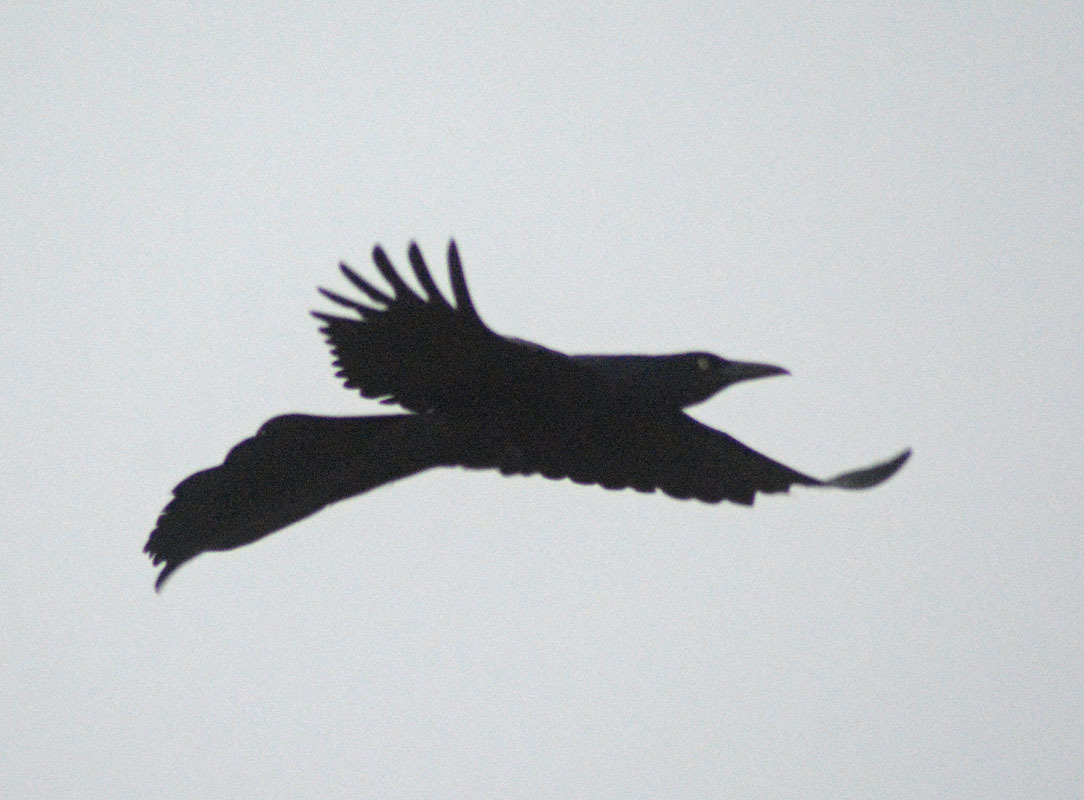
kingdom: Animalia
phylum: Chordata
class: Aves
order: Passeriformes
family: Icteridae
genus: Quiscalus
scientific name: Quiscalus mexicanus
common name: Great-tailed grackle
